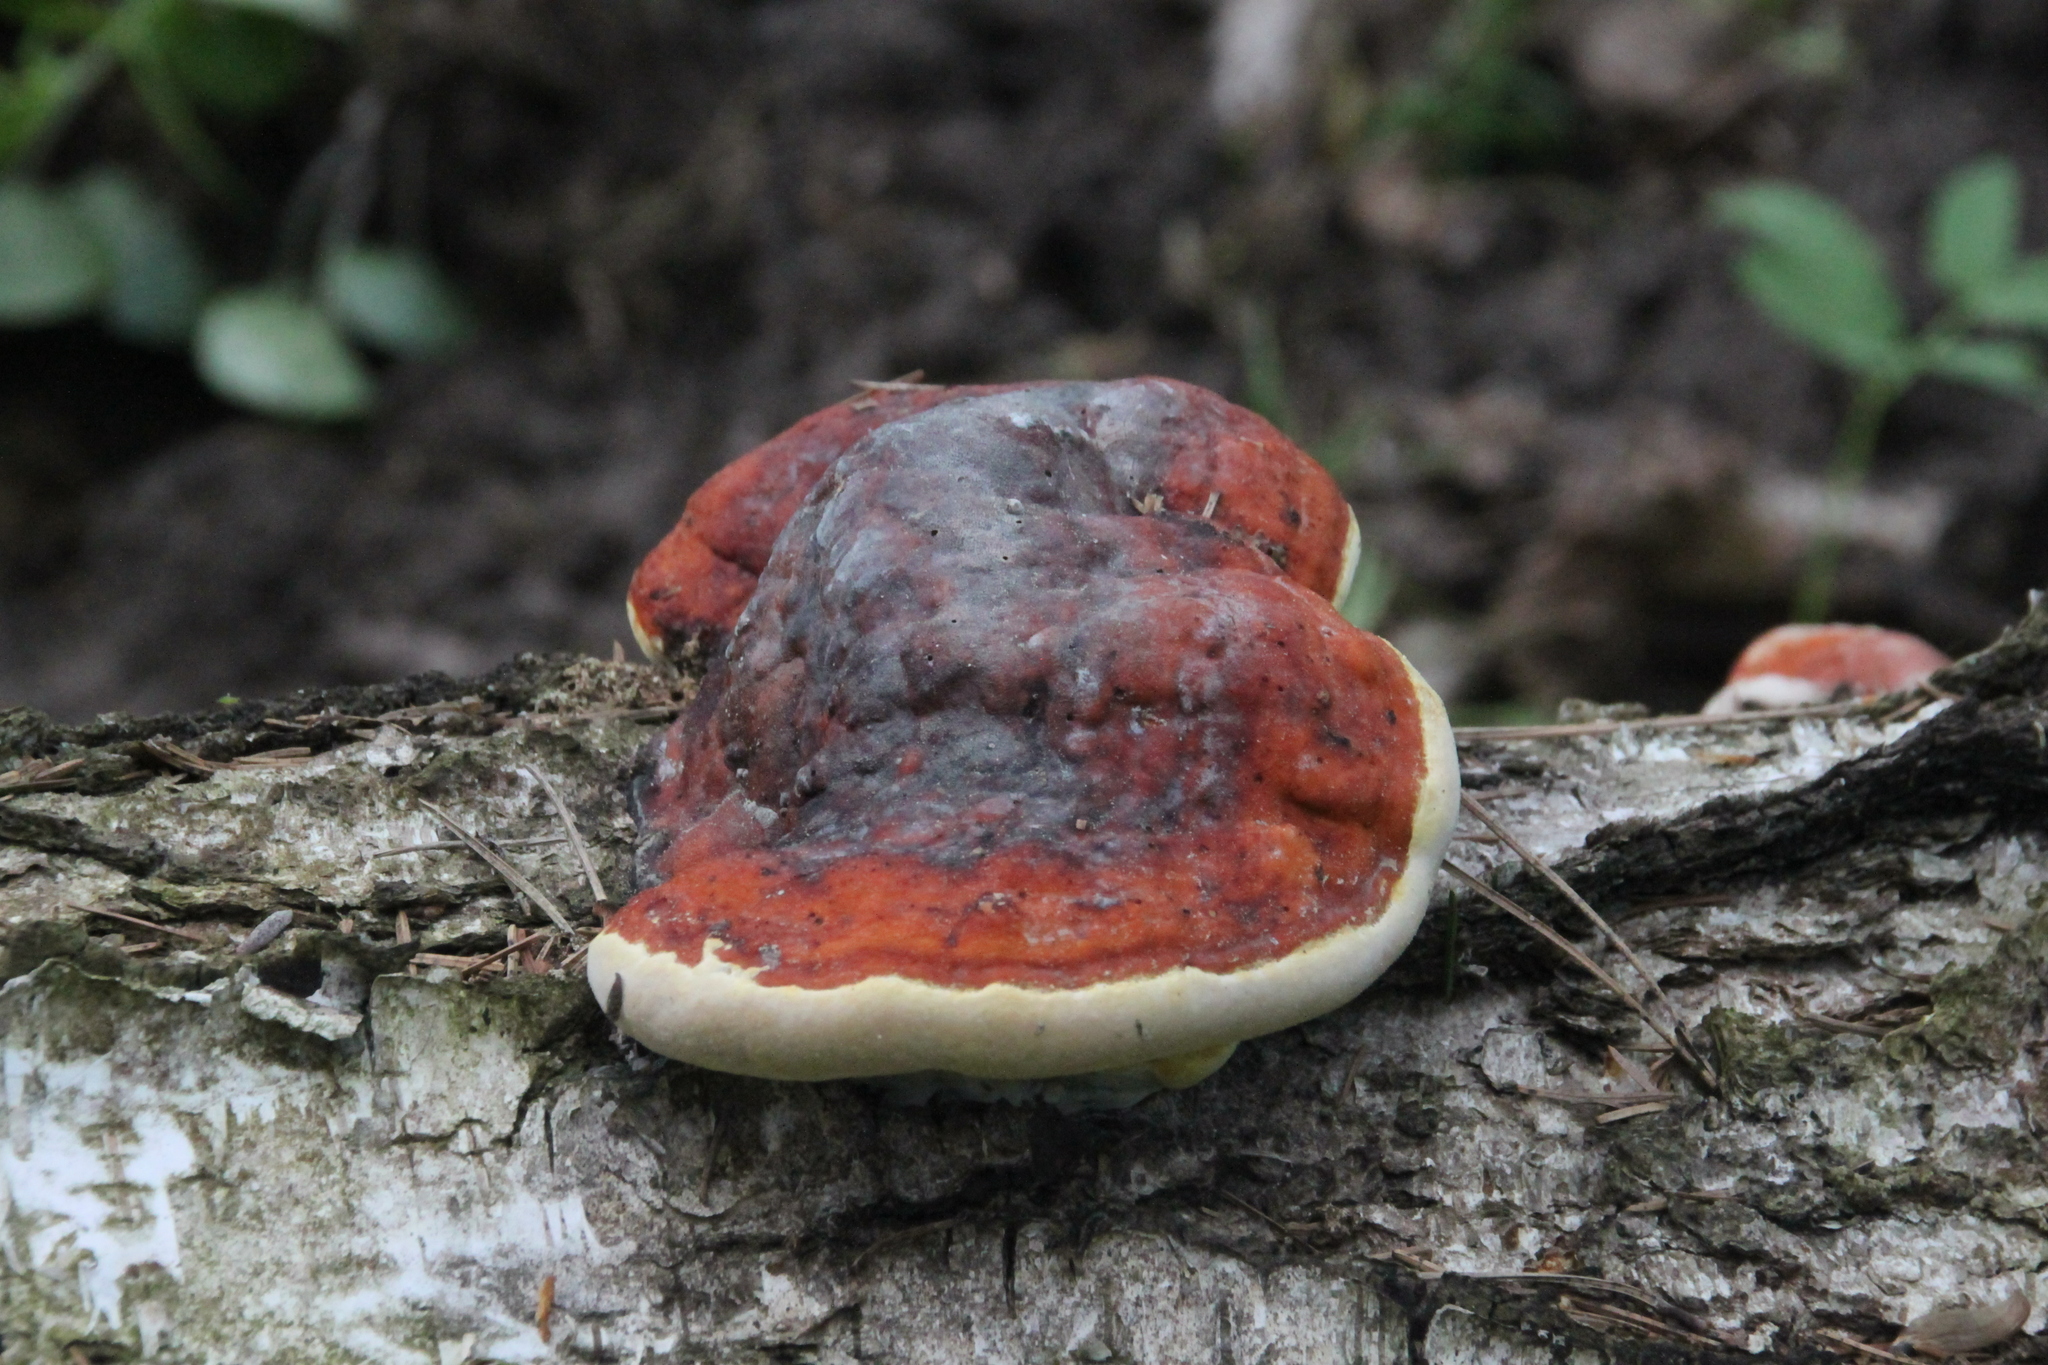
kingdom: Fungi
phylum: Basidiomycota
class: Agaricomycetes
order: Polyporales
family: Fomitopsidaceae
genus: Fomitopsis
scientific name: Fomitopsis pinicola
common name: Red-belted bracket
